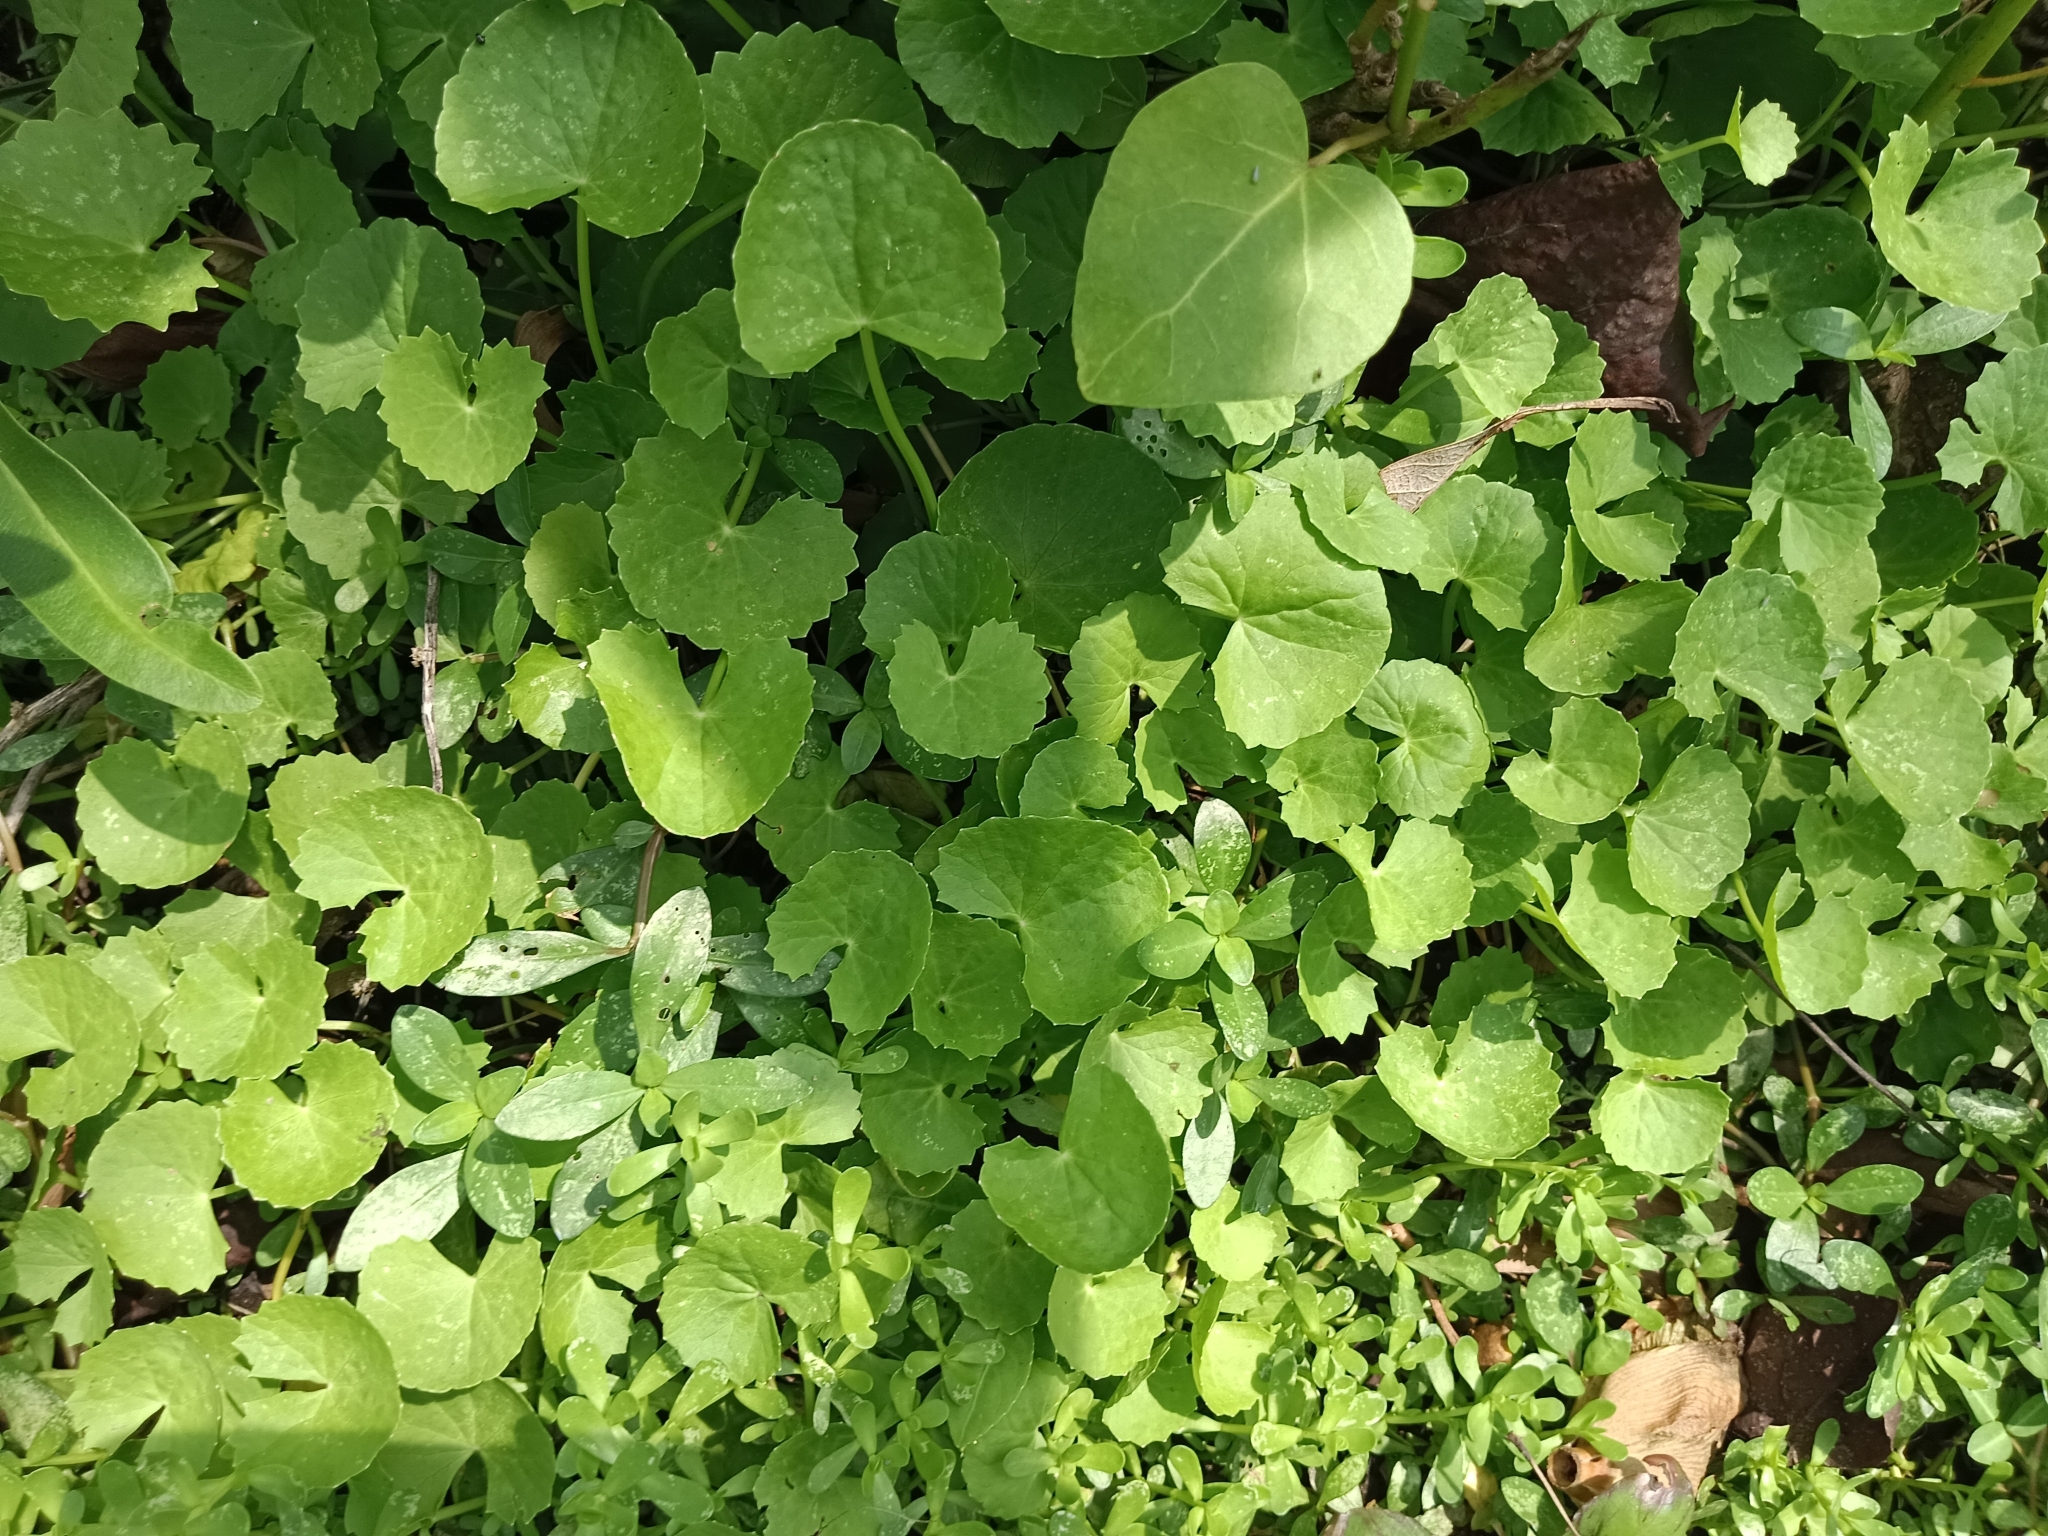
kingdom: Plantae
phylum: Tracheophyta
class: Magnoliopsida
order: Apiales
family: Apiaceae
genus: Centella
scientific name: Centella asiatica
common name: Spadeleaf
